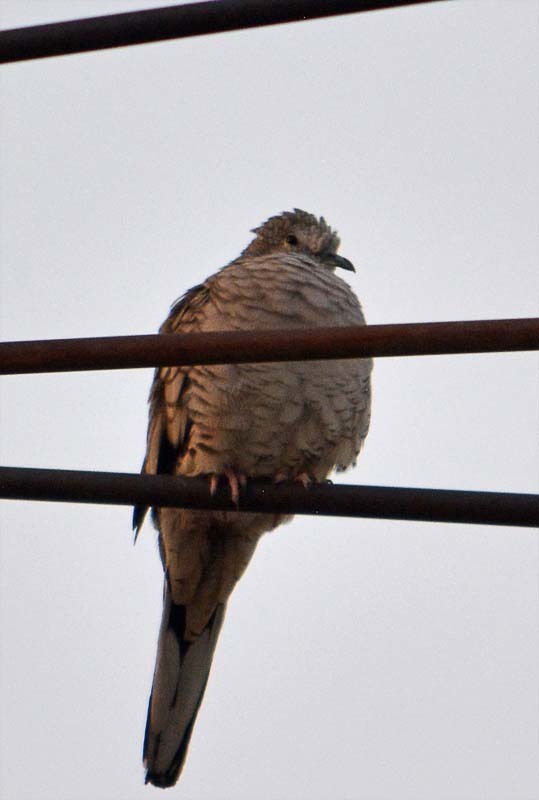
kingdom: Animalia
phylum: Chordata
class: Aves
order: Columbiformes
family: Columbidae
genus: Columbina
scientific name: Columbina inca
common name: Inca dove
